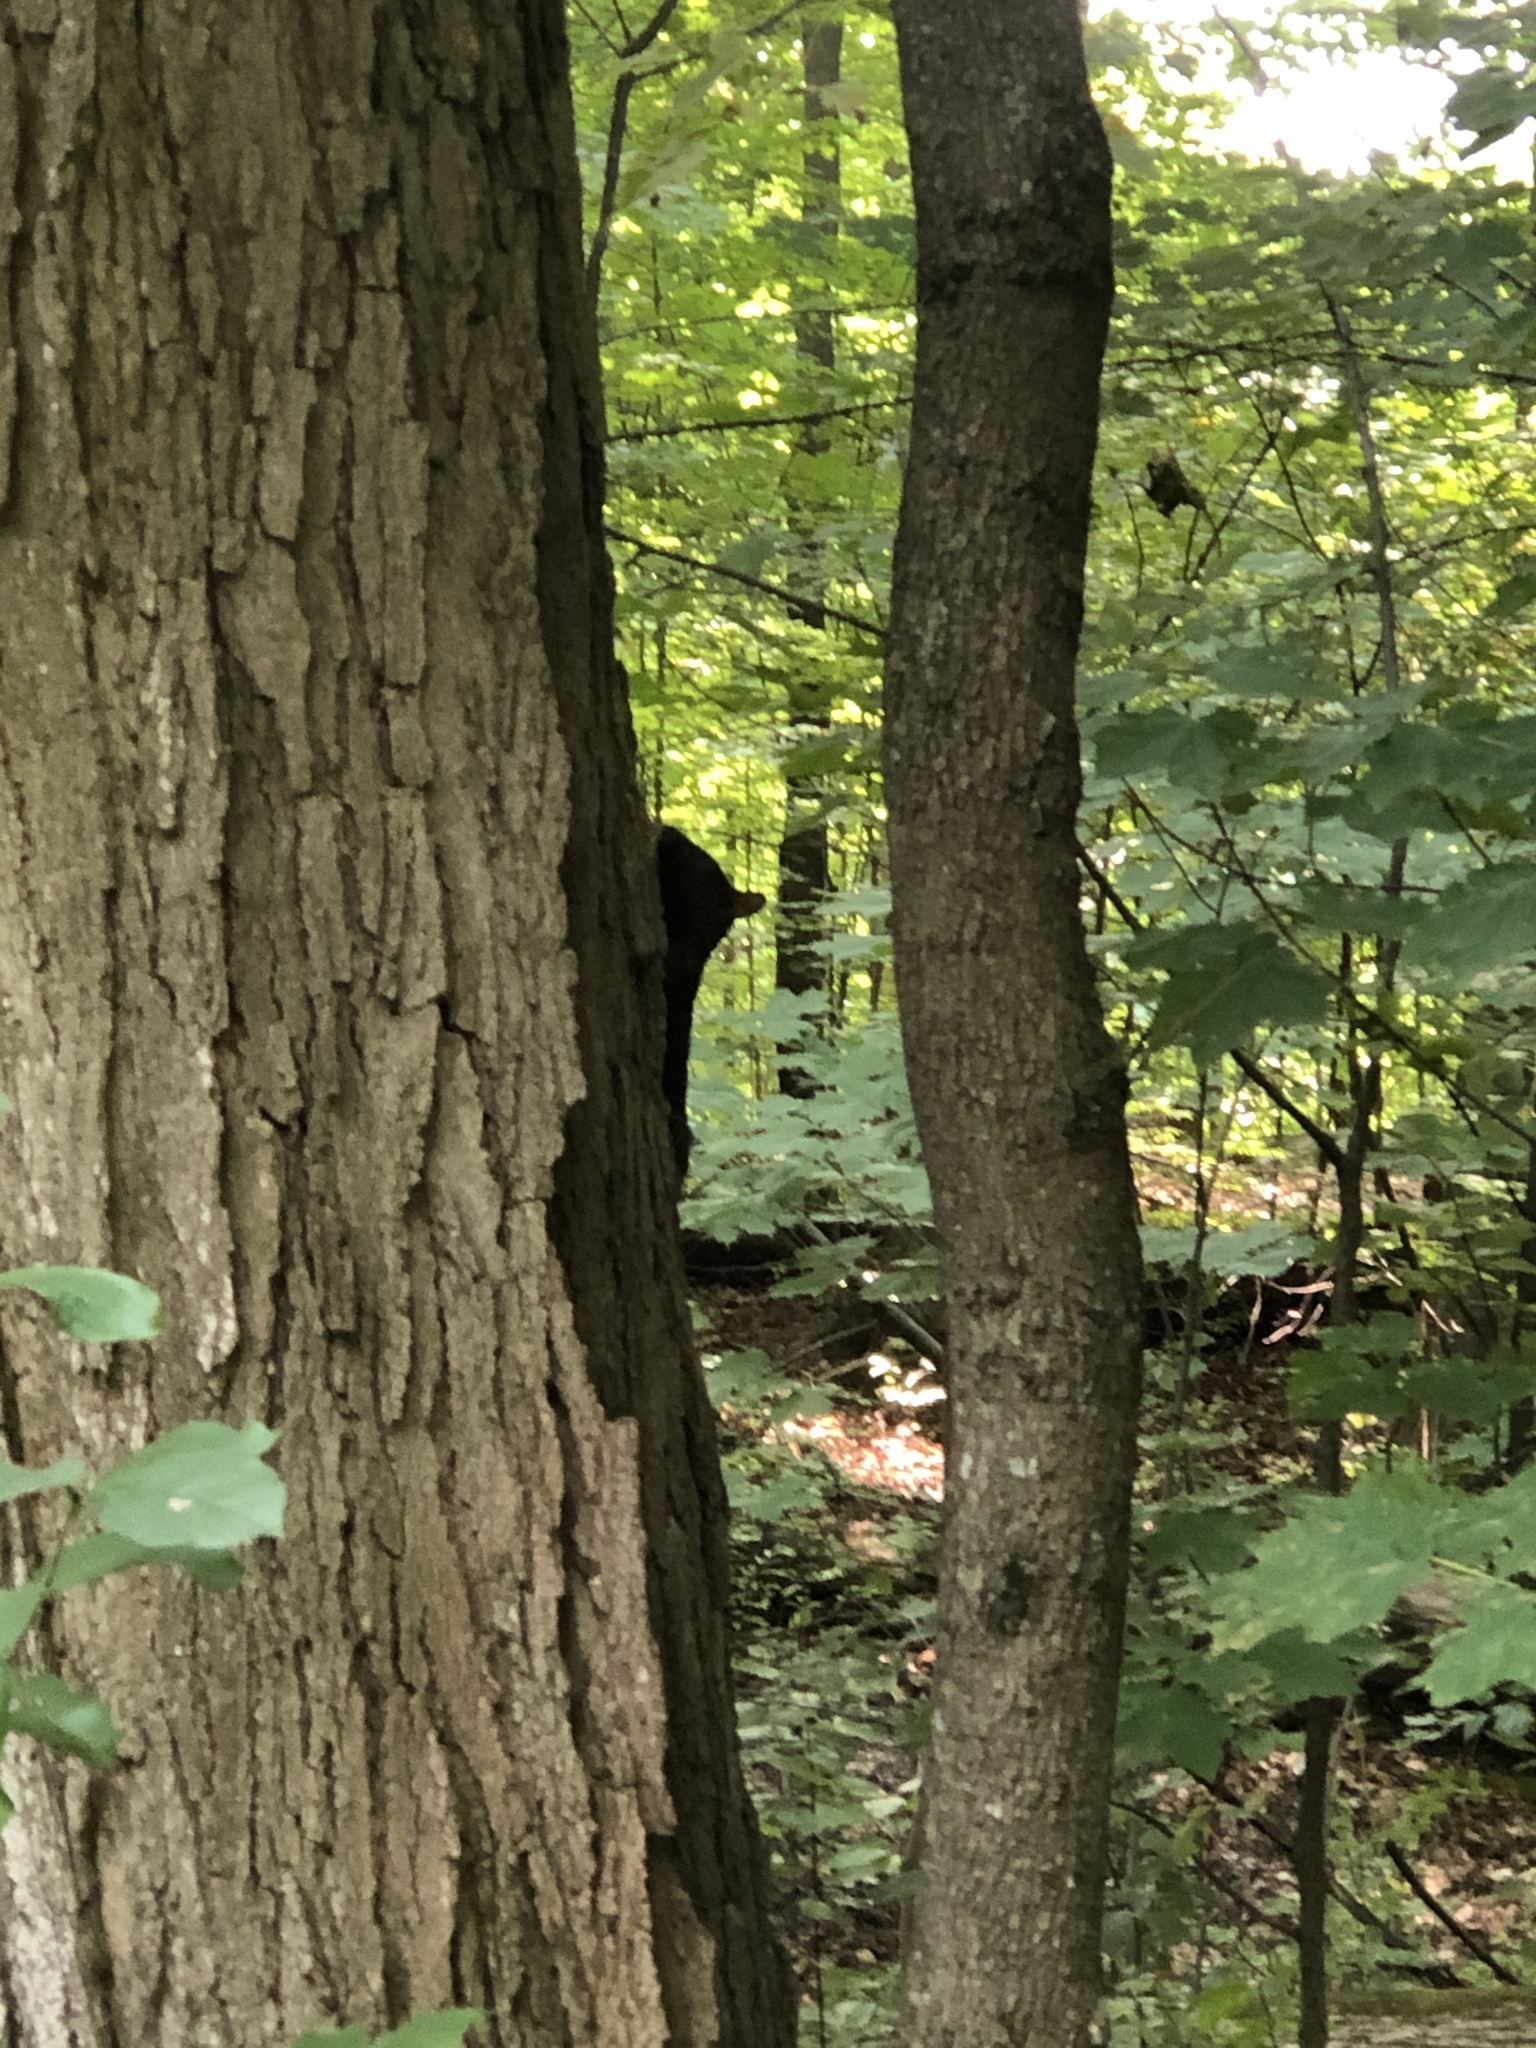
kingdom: Animalia
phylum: Chordata
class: Mammalia
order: Rodentia
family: Sciuridae
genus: Sciurus
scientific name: Sciurus carolinensis
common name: Eastern gray squirrel
